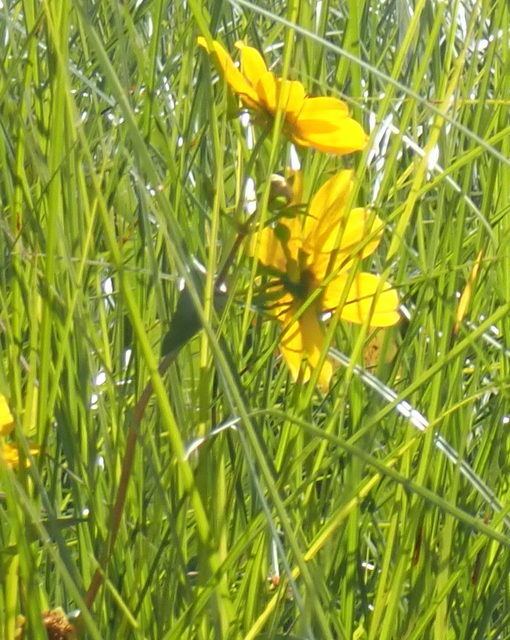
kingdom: Plantae
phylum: Tracheophyta
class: Magnoliopsida
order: Asterales
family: Asteraceae
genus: Bidens
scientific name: Bidens laevis
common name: Larger bur-marigold
